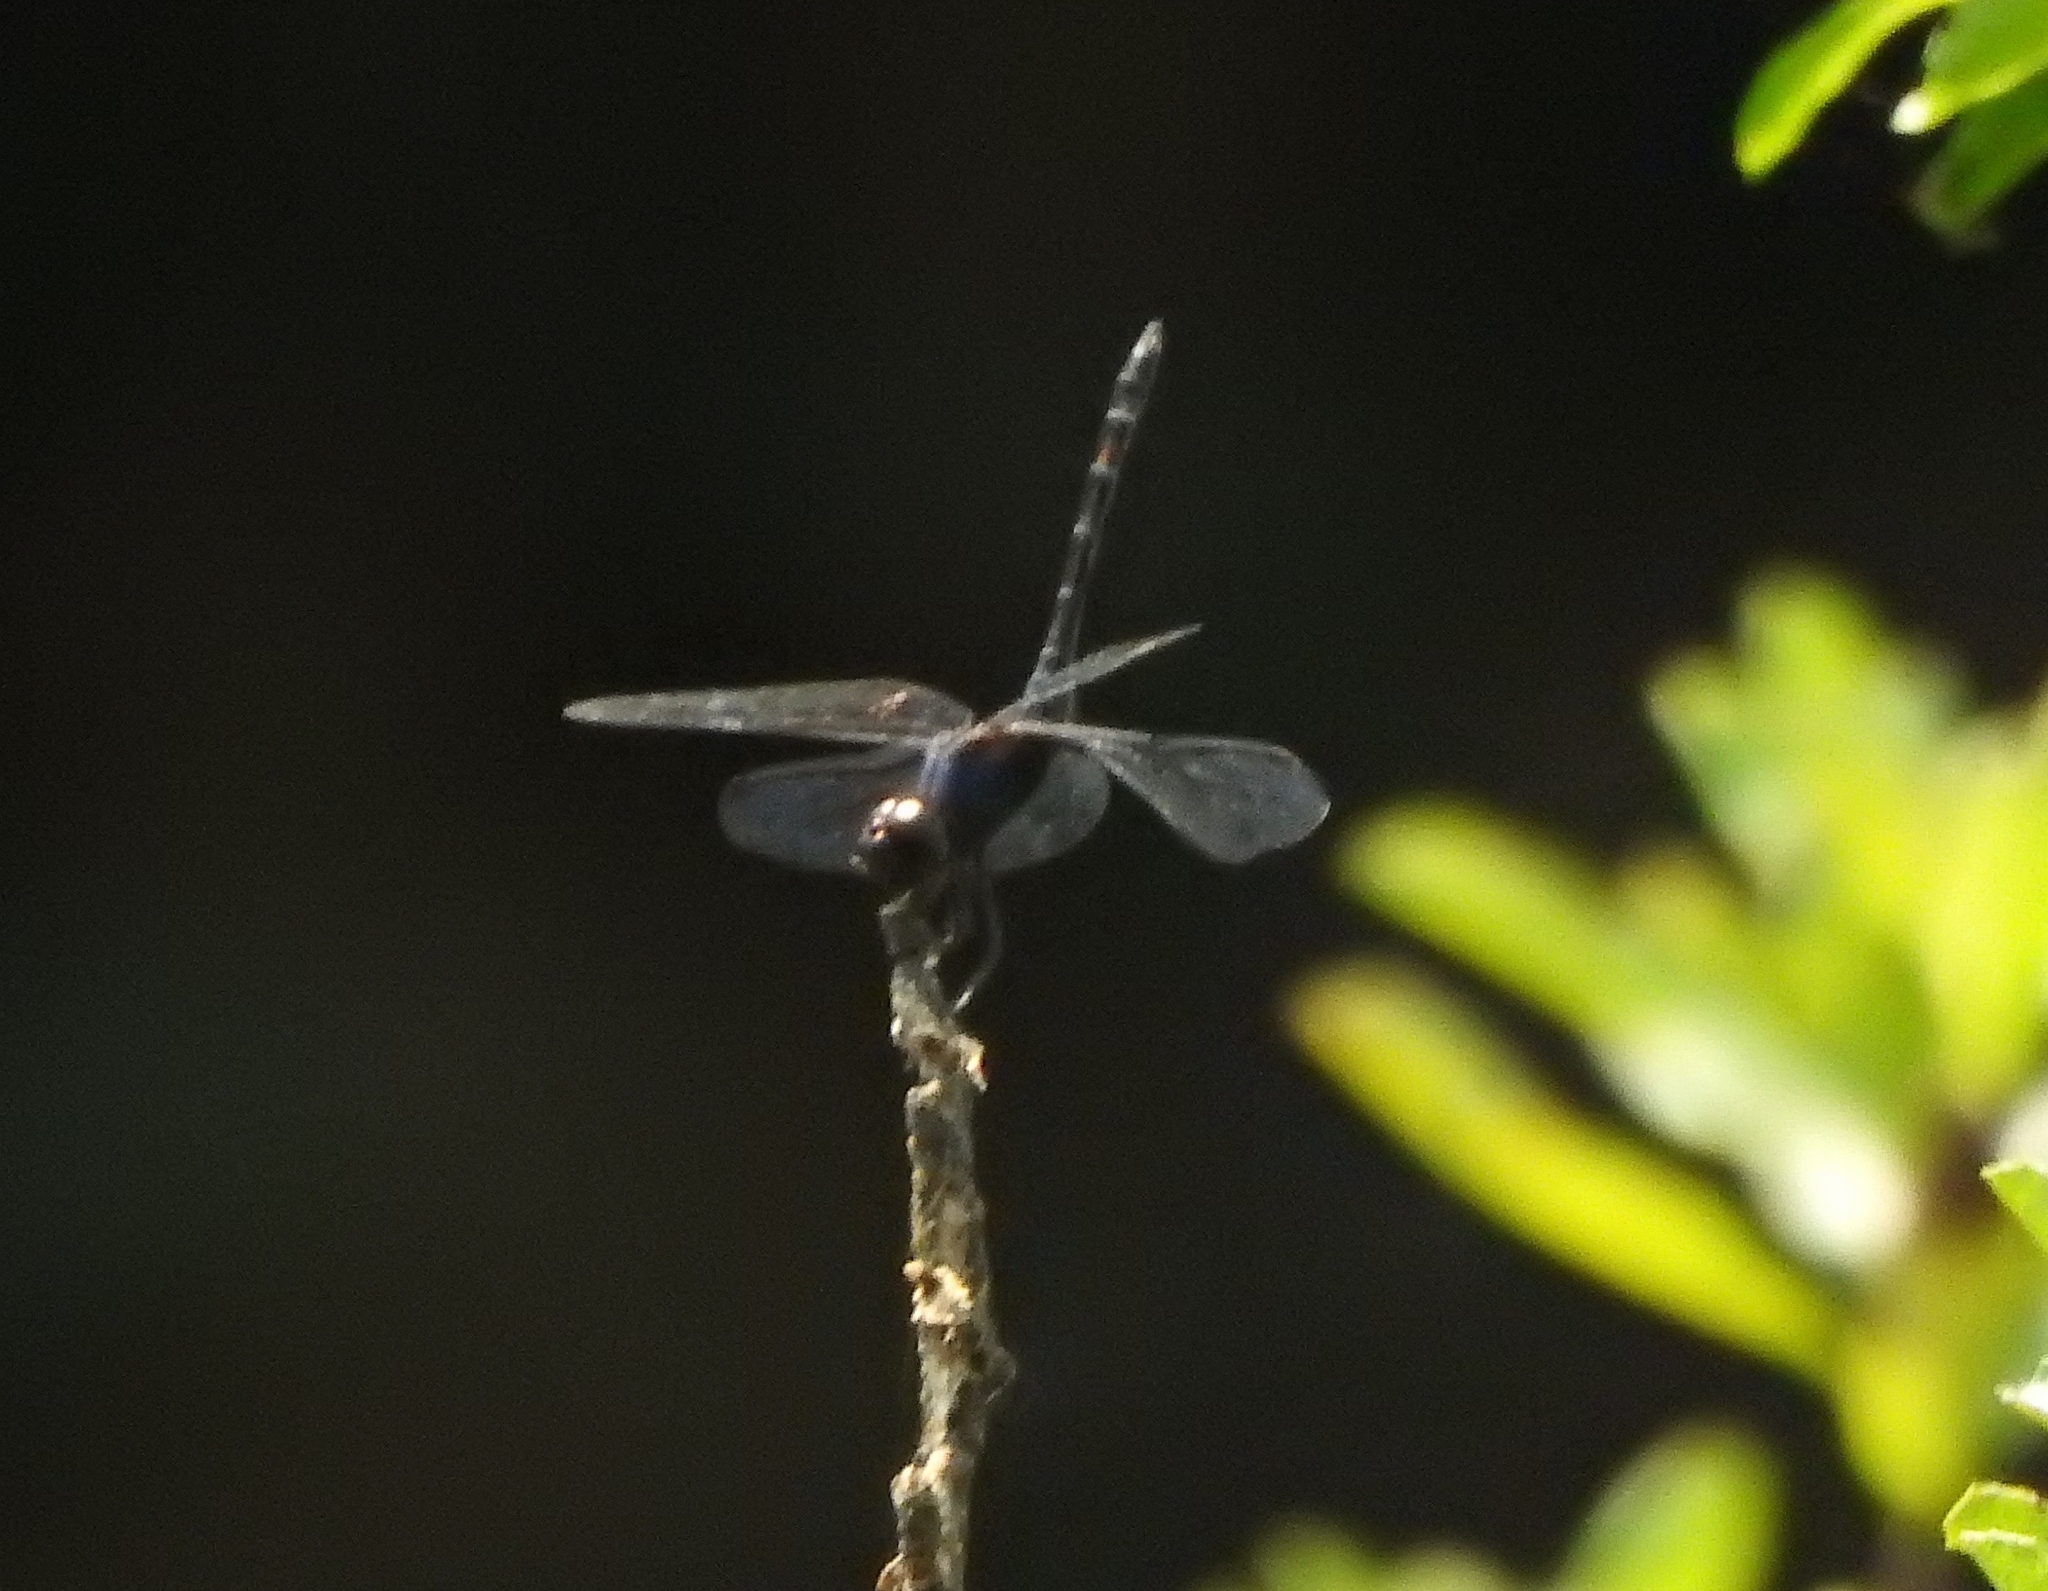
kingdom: Animalia
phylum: Arthropoda
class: Insecta
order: Odonata
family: Libellulidae
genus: Trithemis
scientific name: Trithemis festiva
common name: Indigo dropwing
